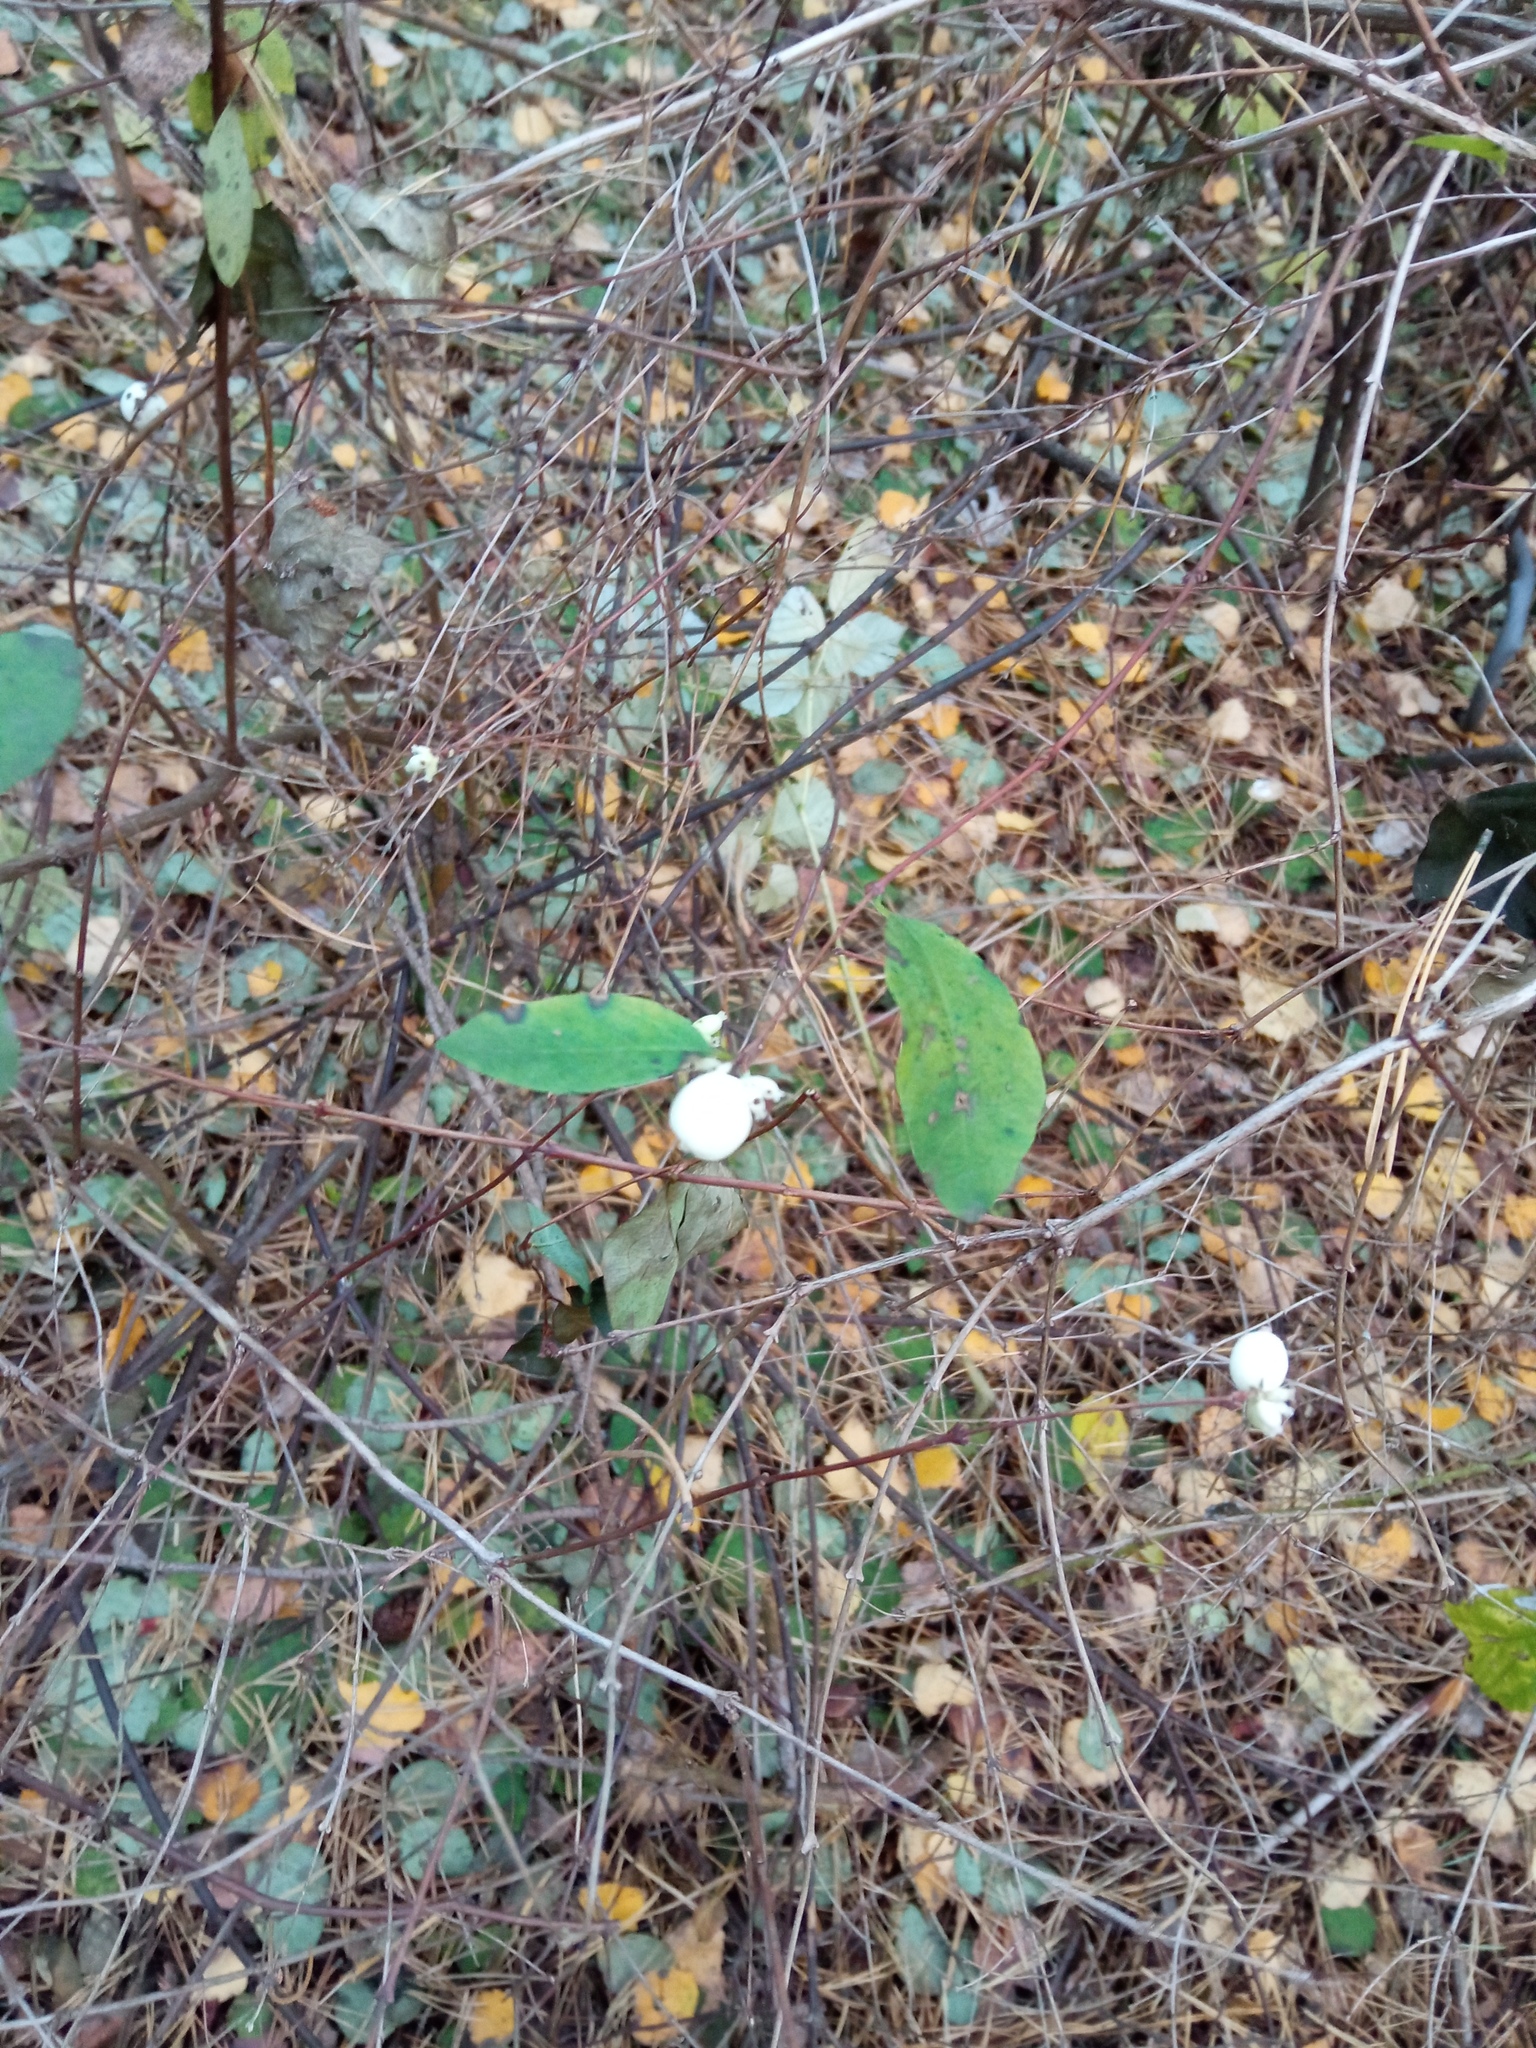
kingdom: Plantae
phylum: Tracheophyta
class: Magnoliopsida
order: Dipsacales
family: Caprifoliaceae
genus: Symphoricarpos
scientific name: Symphoricarpos albus
